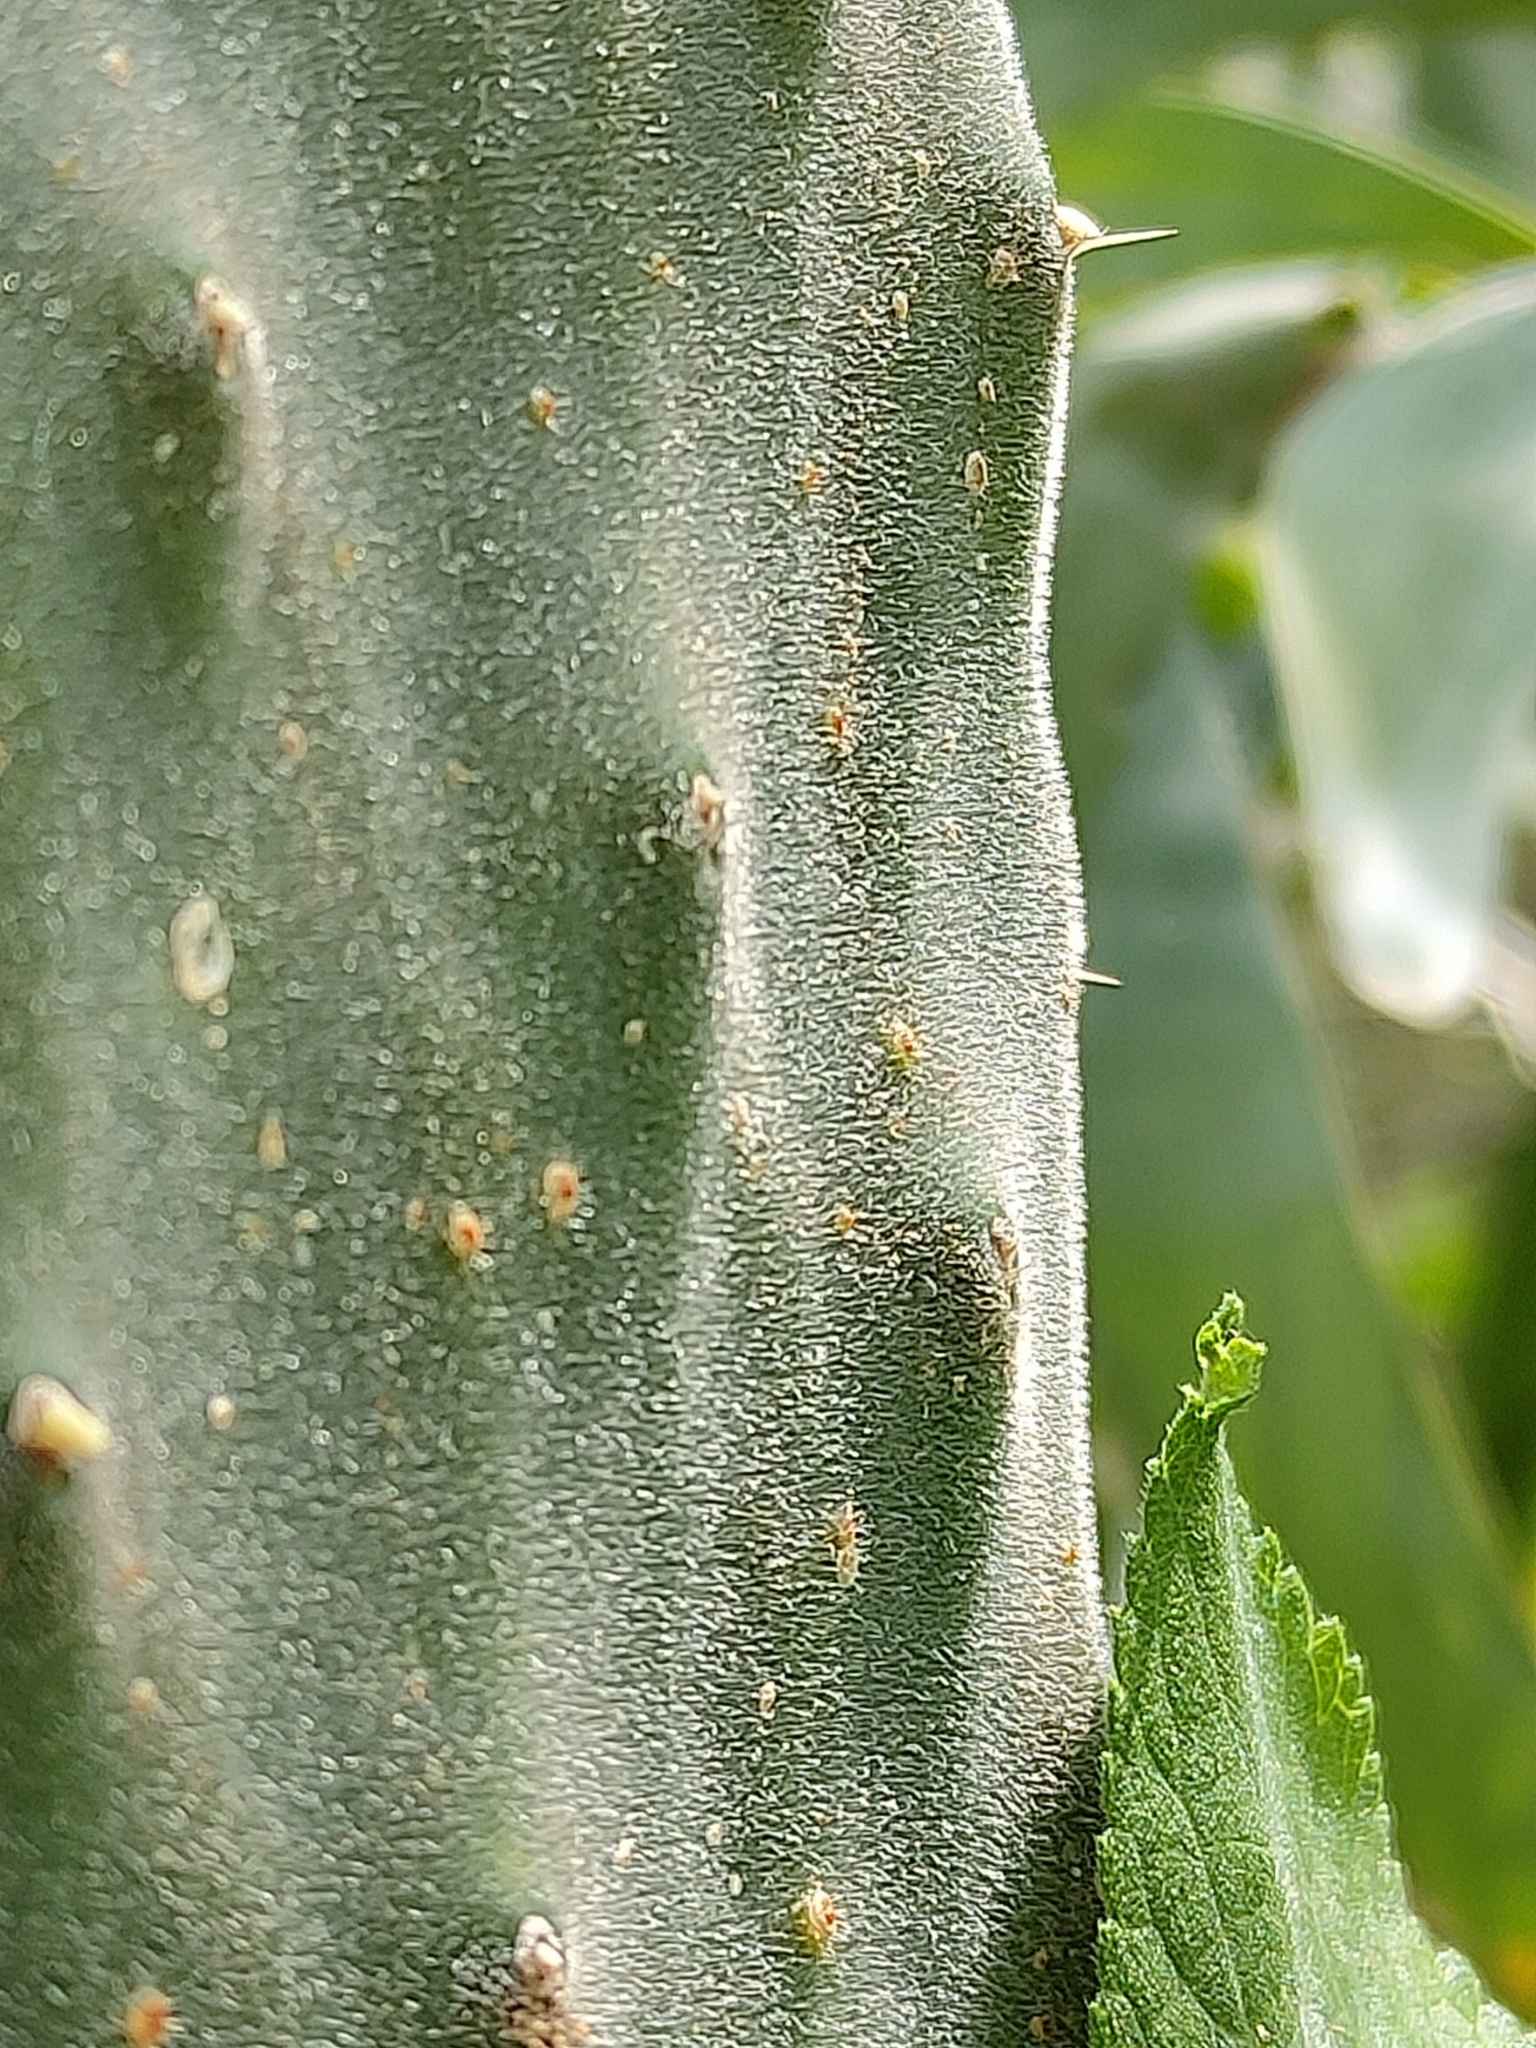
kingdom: Plantae
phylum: Tracheophyta
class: Magnoliopsida
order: Caryophyllales
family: Cactaceae
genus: Opuntia
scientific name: Opuntia tomentosa
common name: Woollyjoint pricklypear
